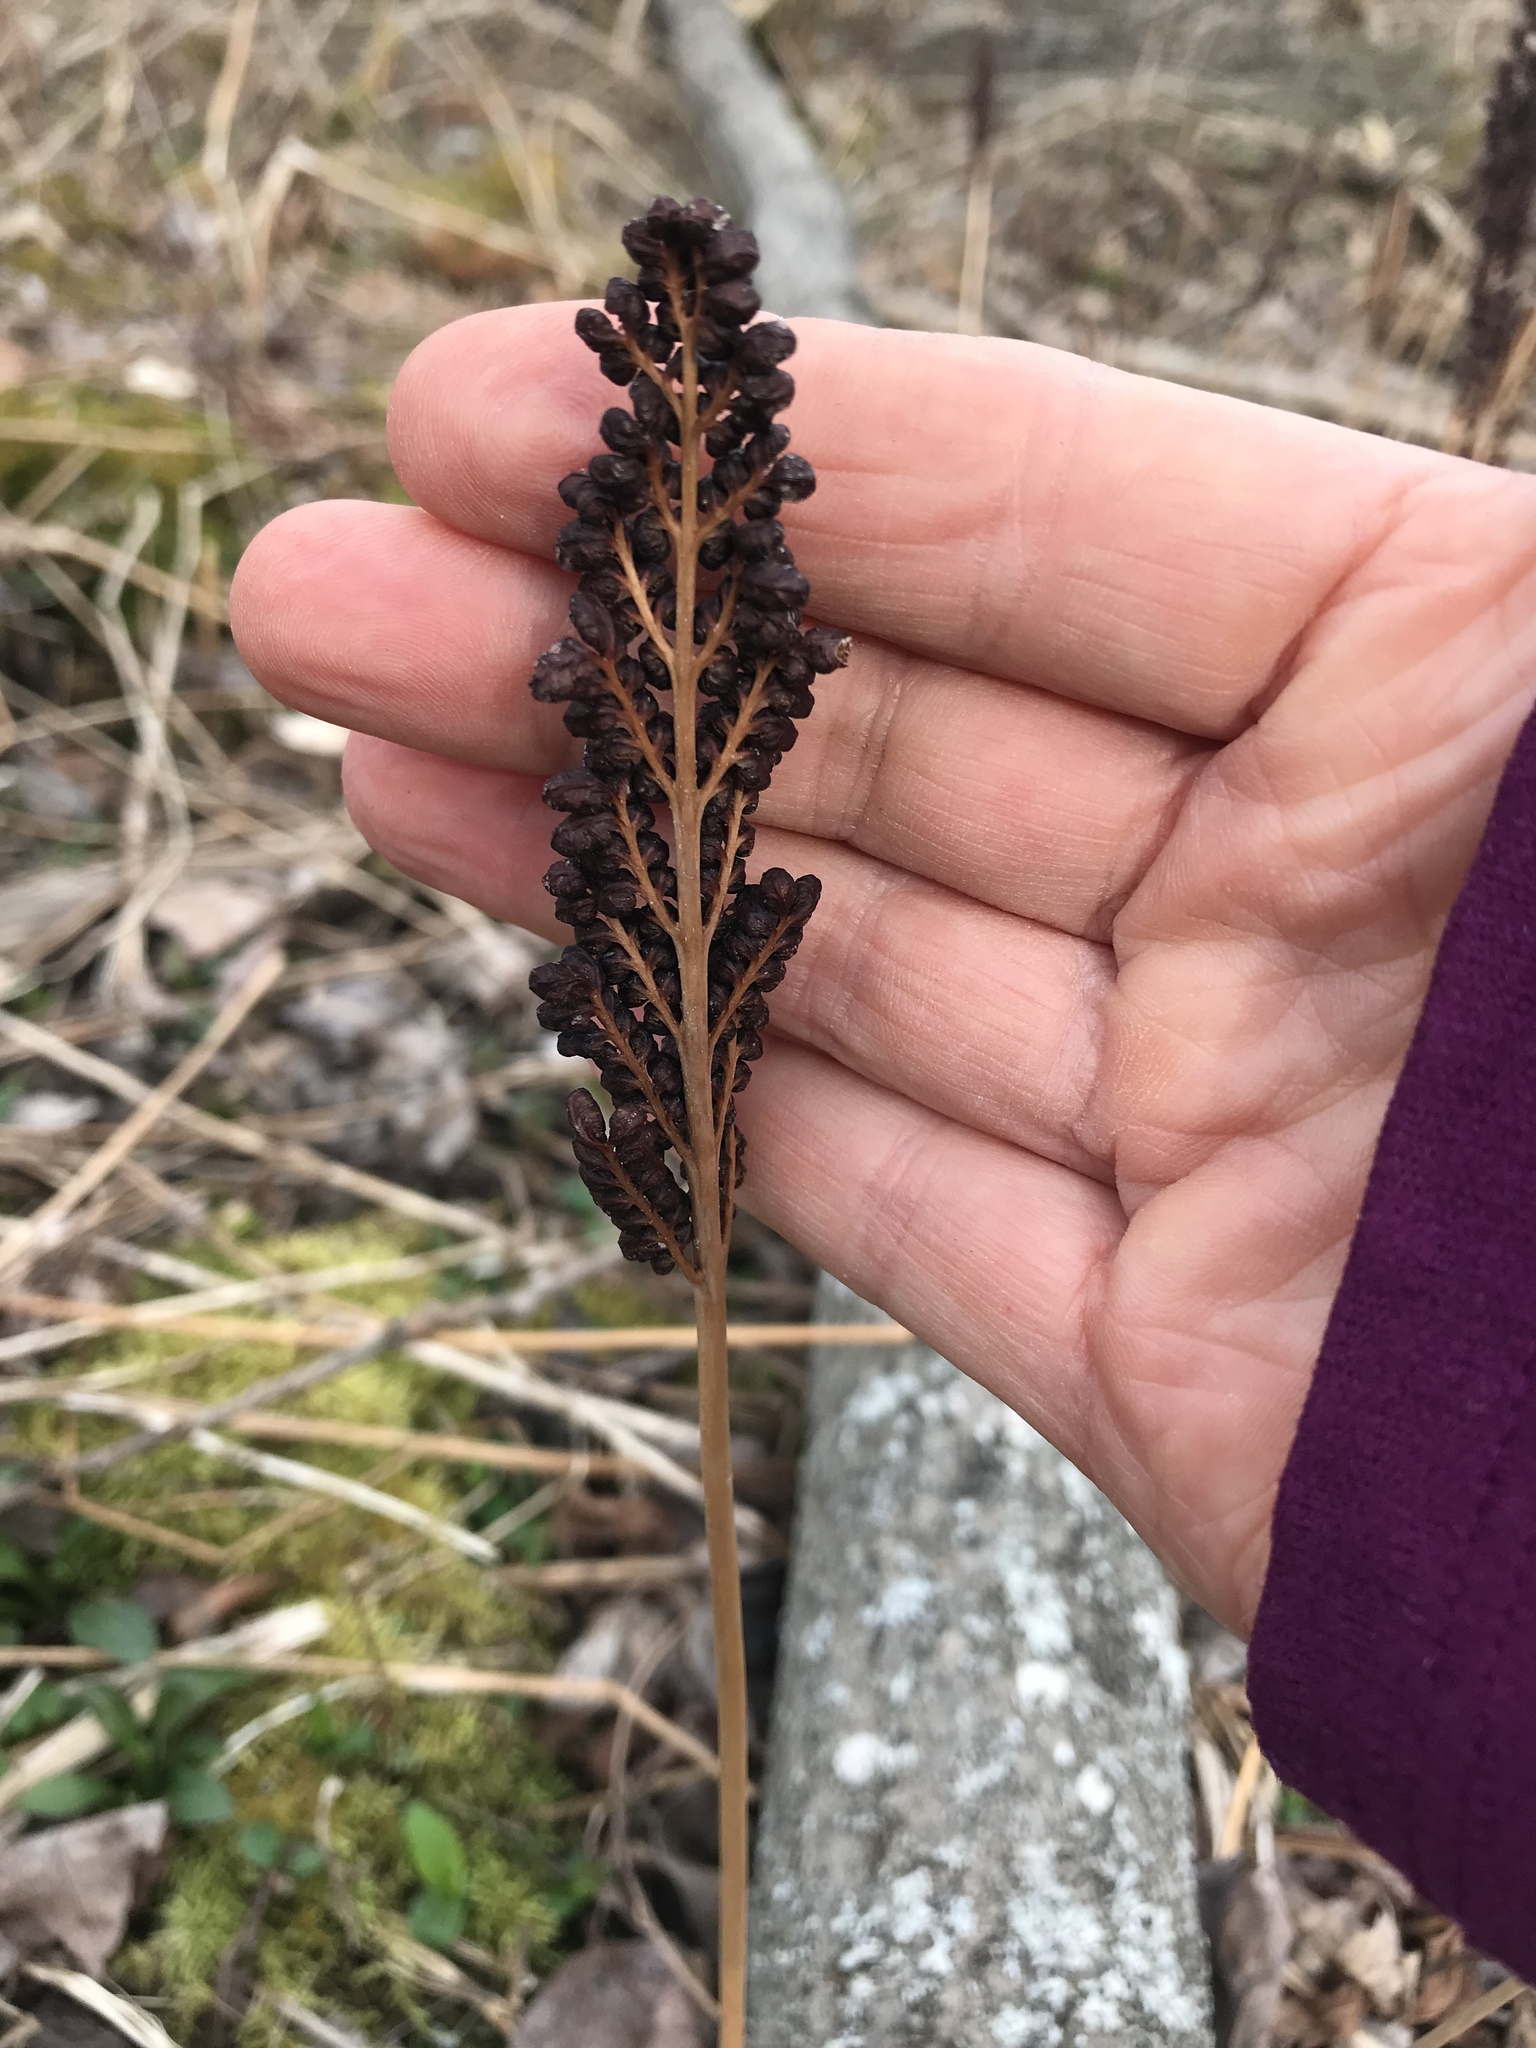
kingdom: Plantae
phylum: Tracheophyta
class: Polypodiopsida
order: Polypodiales
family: Onocleaceae
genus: Onoclea
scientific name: Onoclea sensibilis
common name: Sensitive fern
